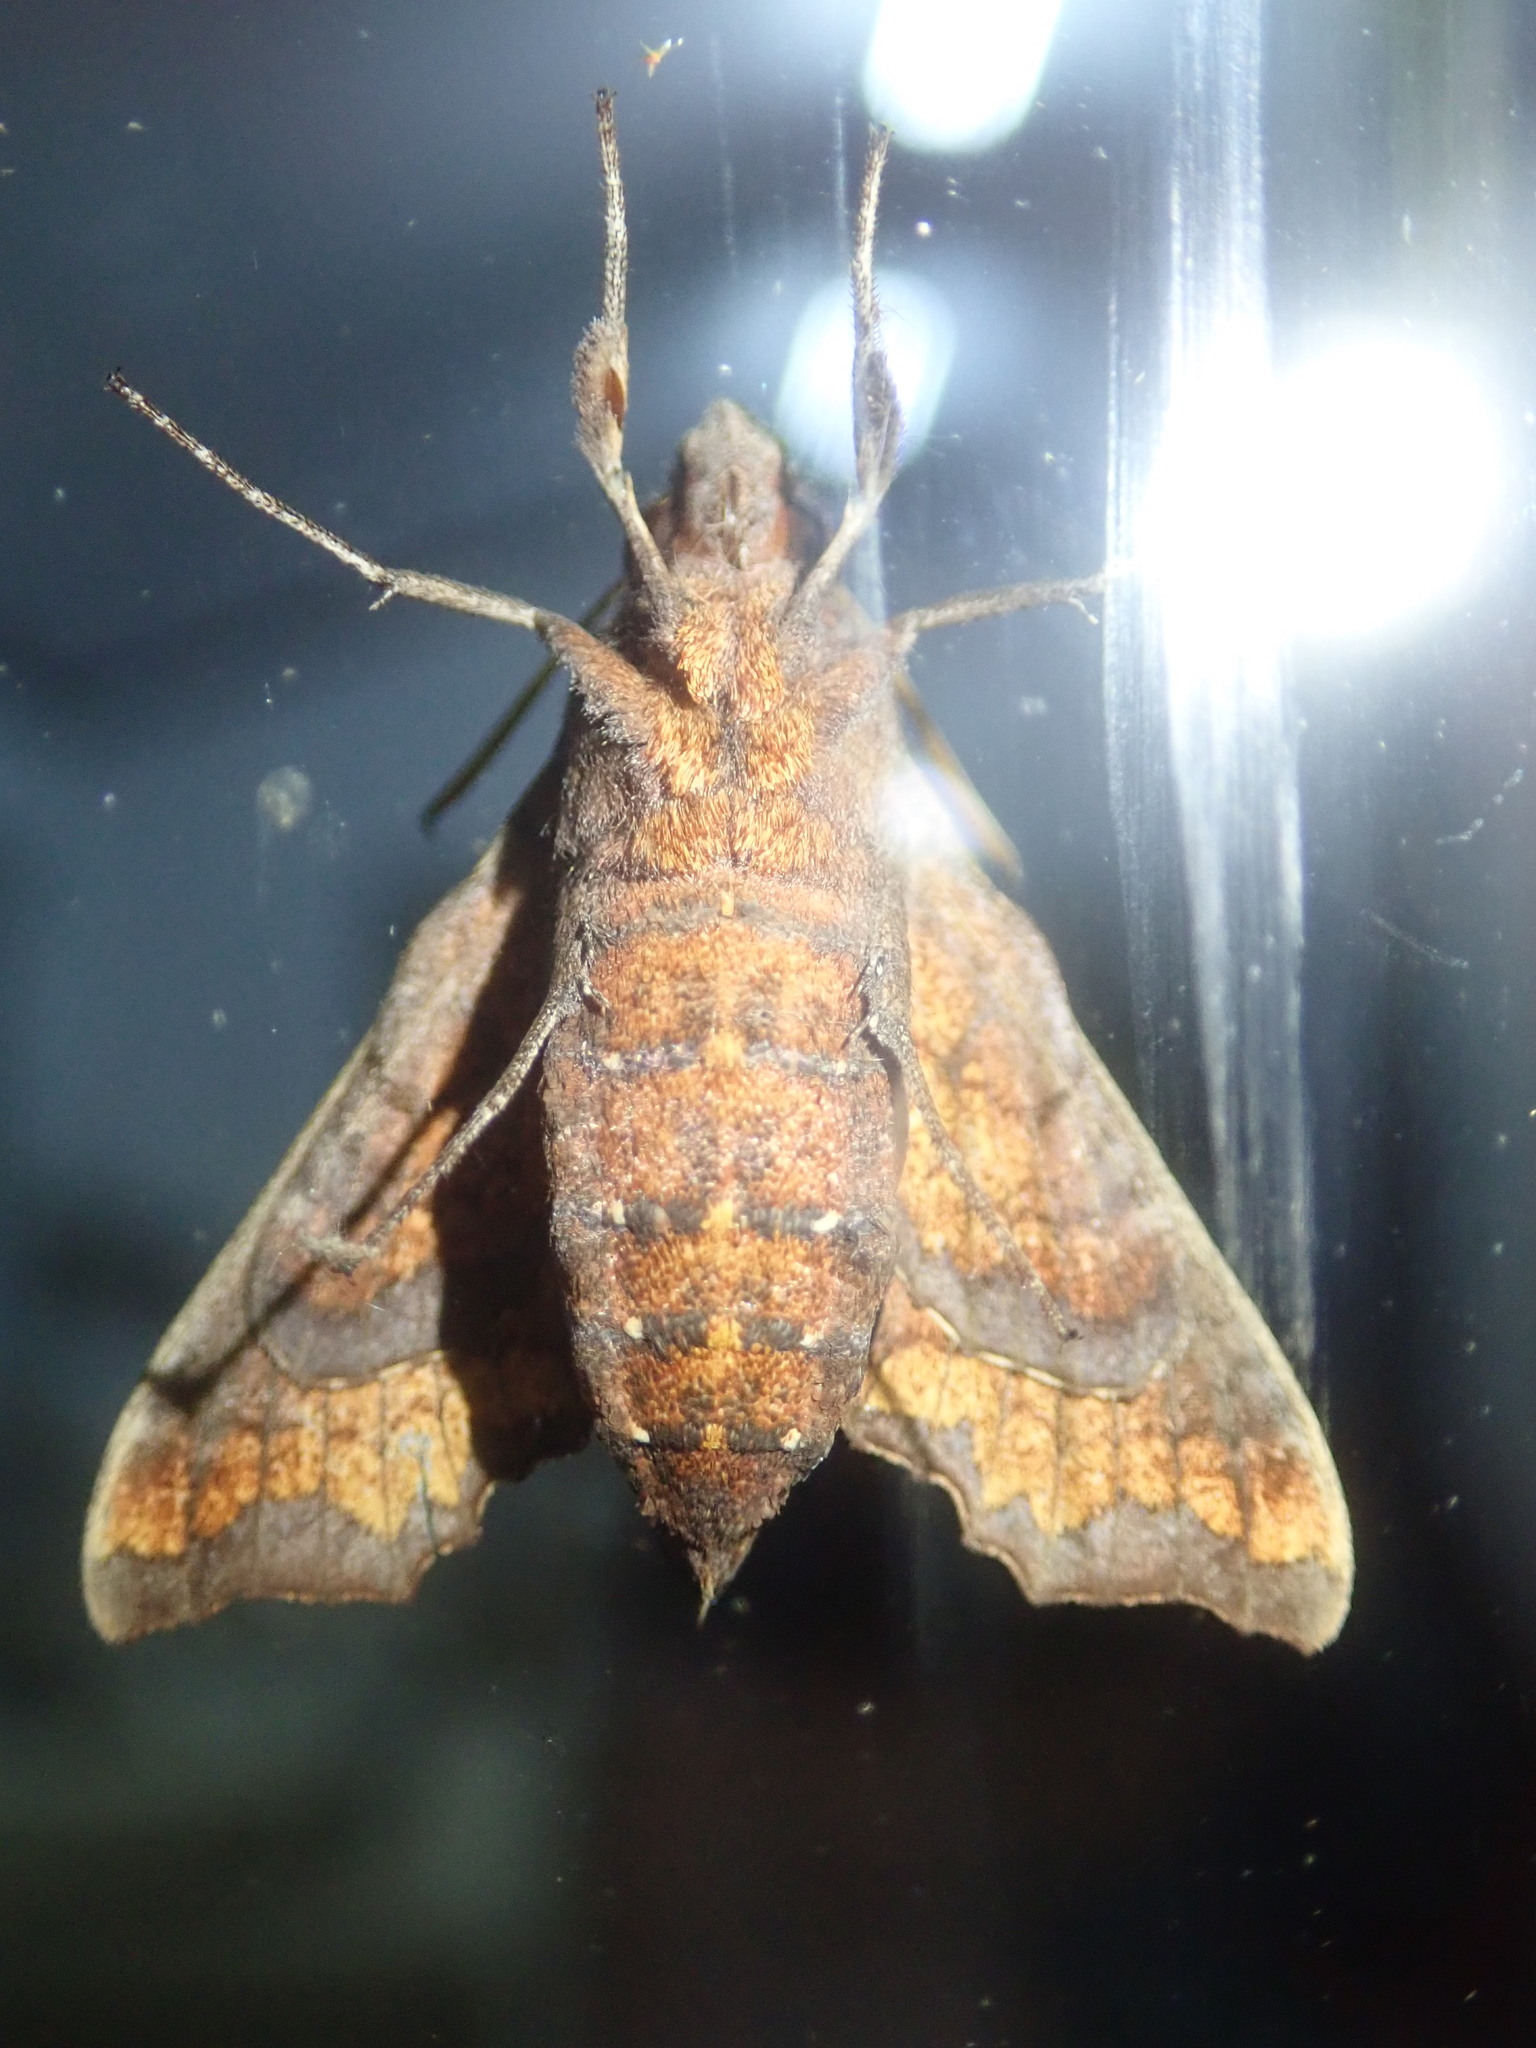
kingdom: Animalia
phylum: Arthropoda
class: Insecta
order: Lepidoptera
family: Sphingidae
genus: Temnora
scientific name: Temnora pylades
